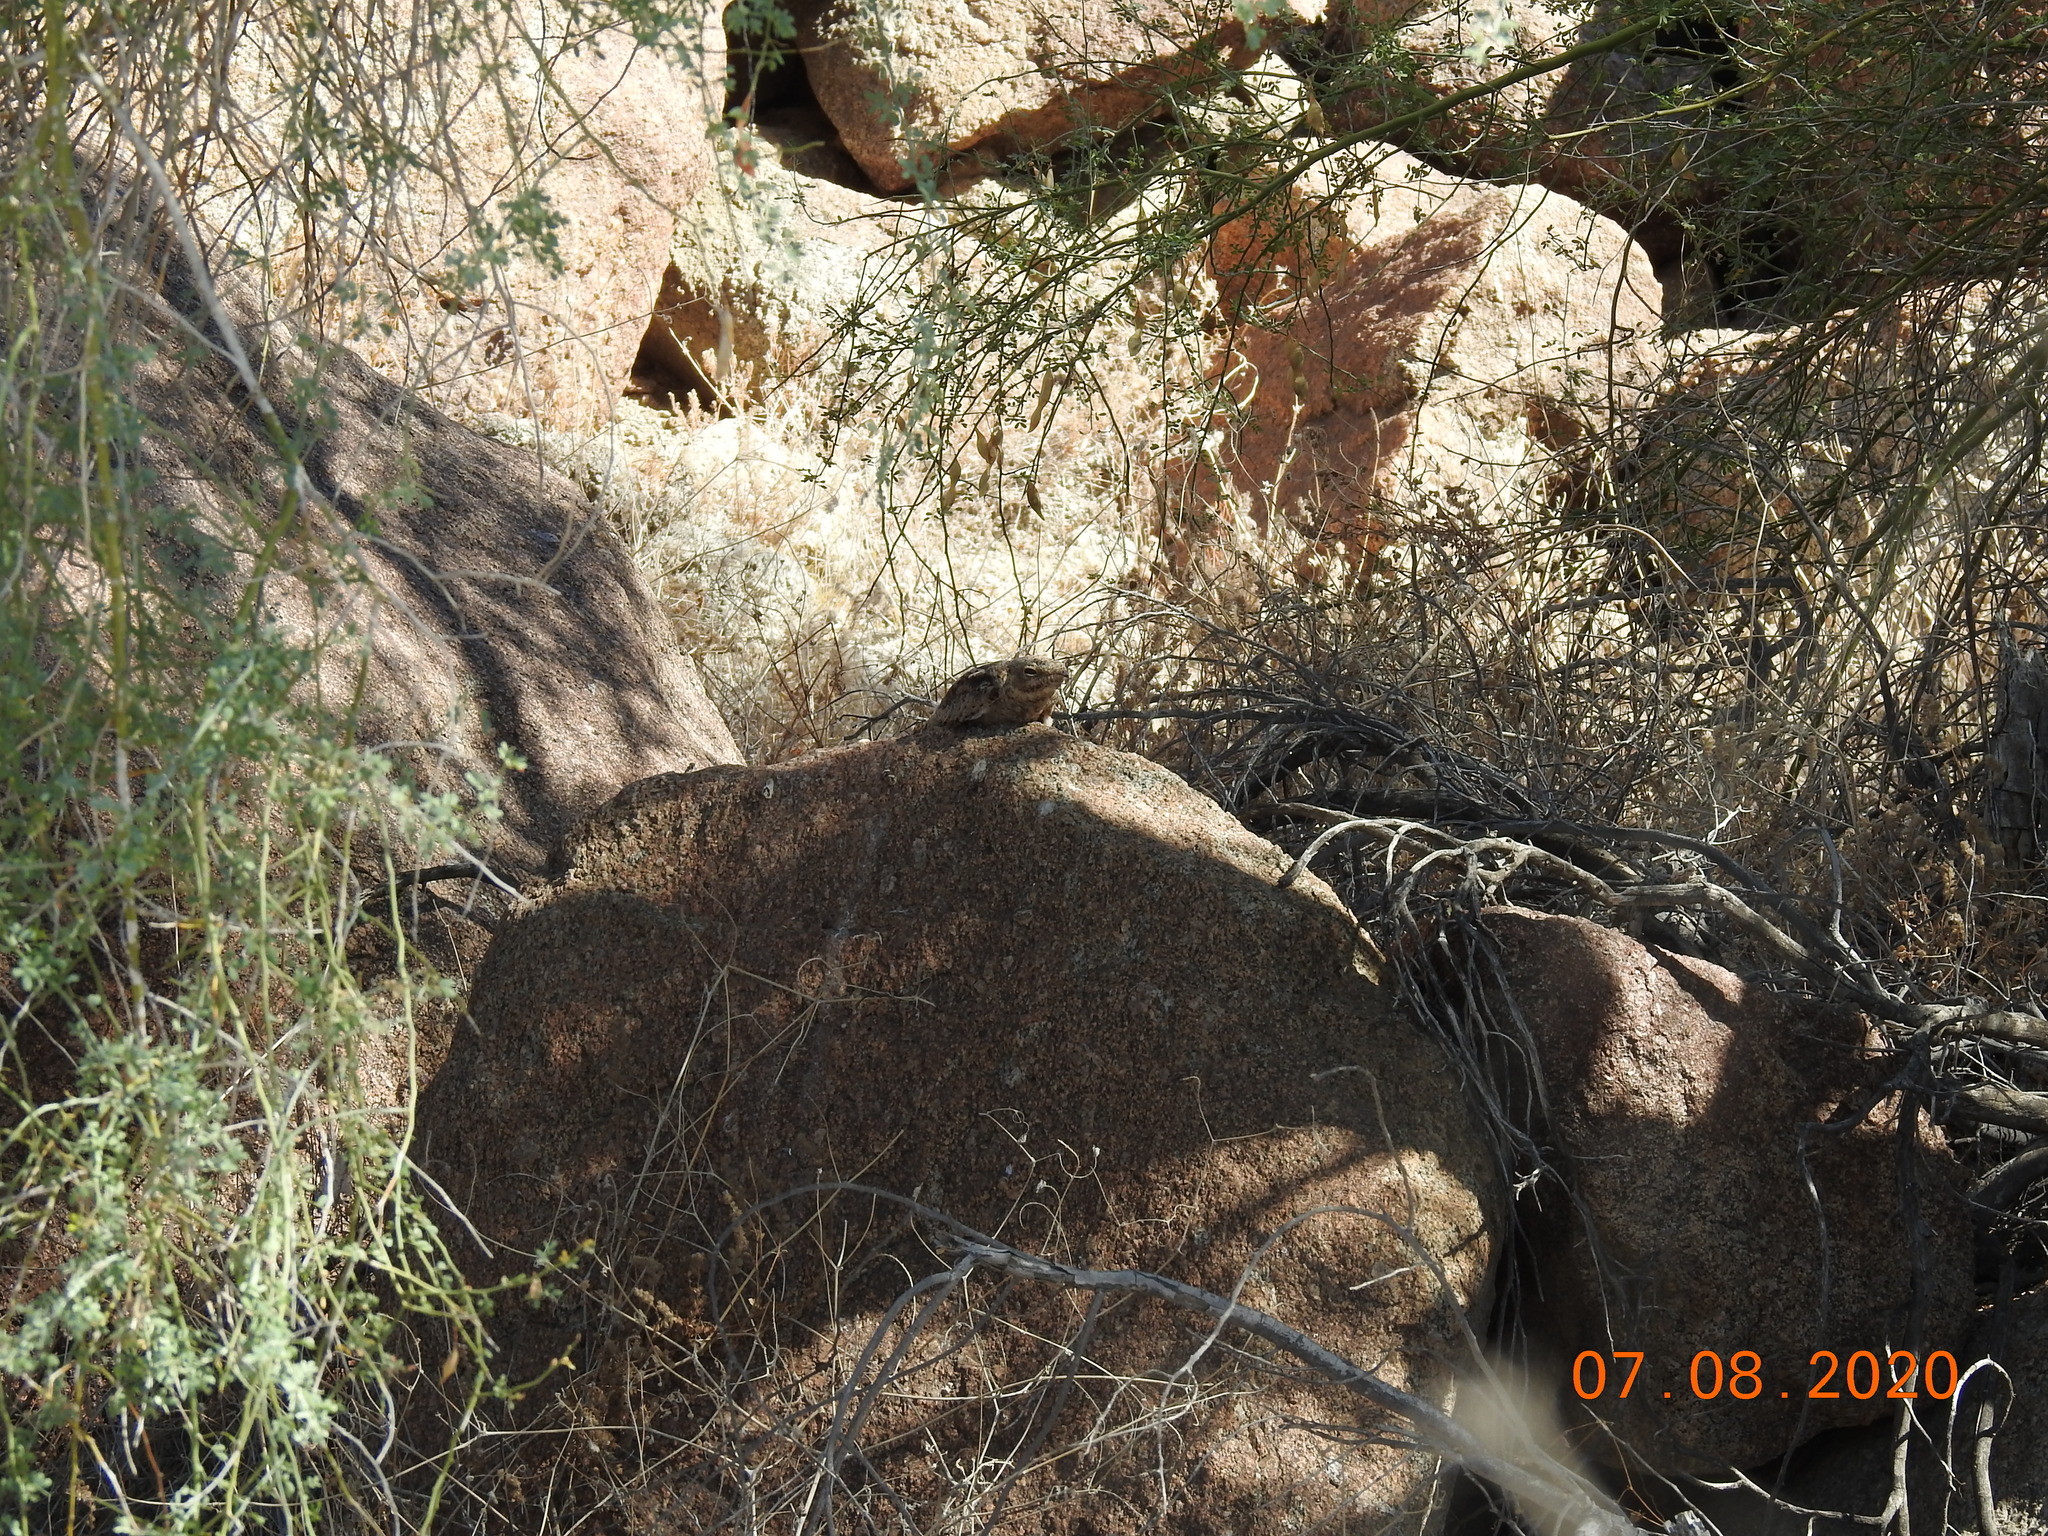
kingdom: Animalia
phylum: Chordata
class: Aves
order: Caprimulgiformes
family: Caprimulgidae
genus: Chordeiles
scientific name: Chordeiles acutipennis
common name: Lesser nighthawk
